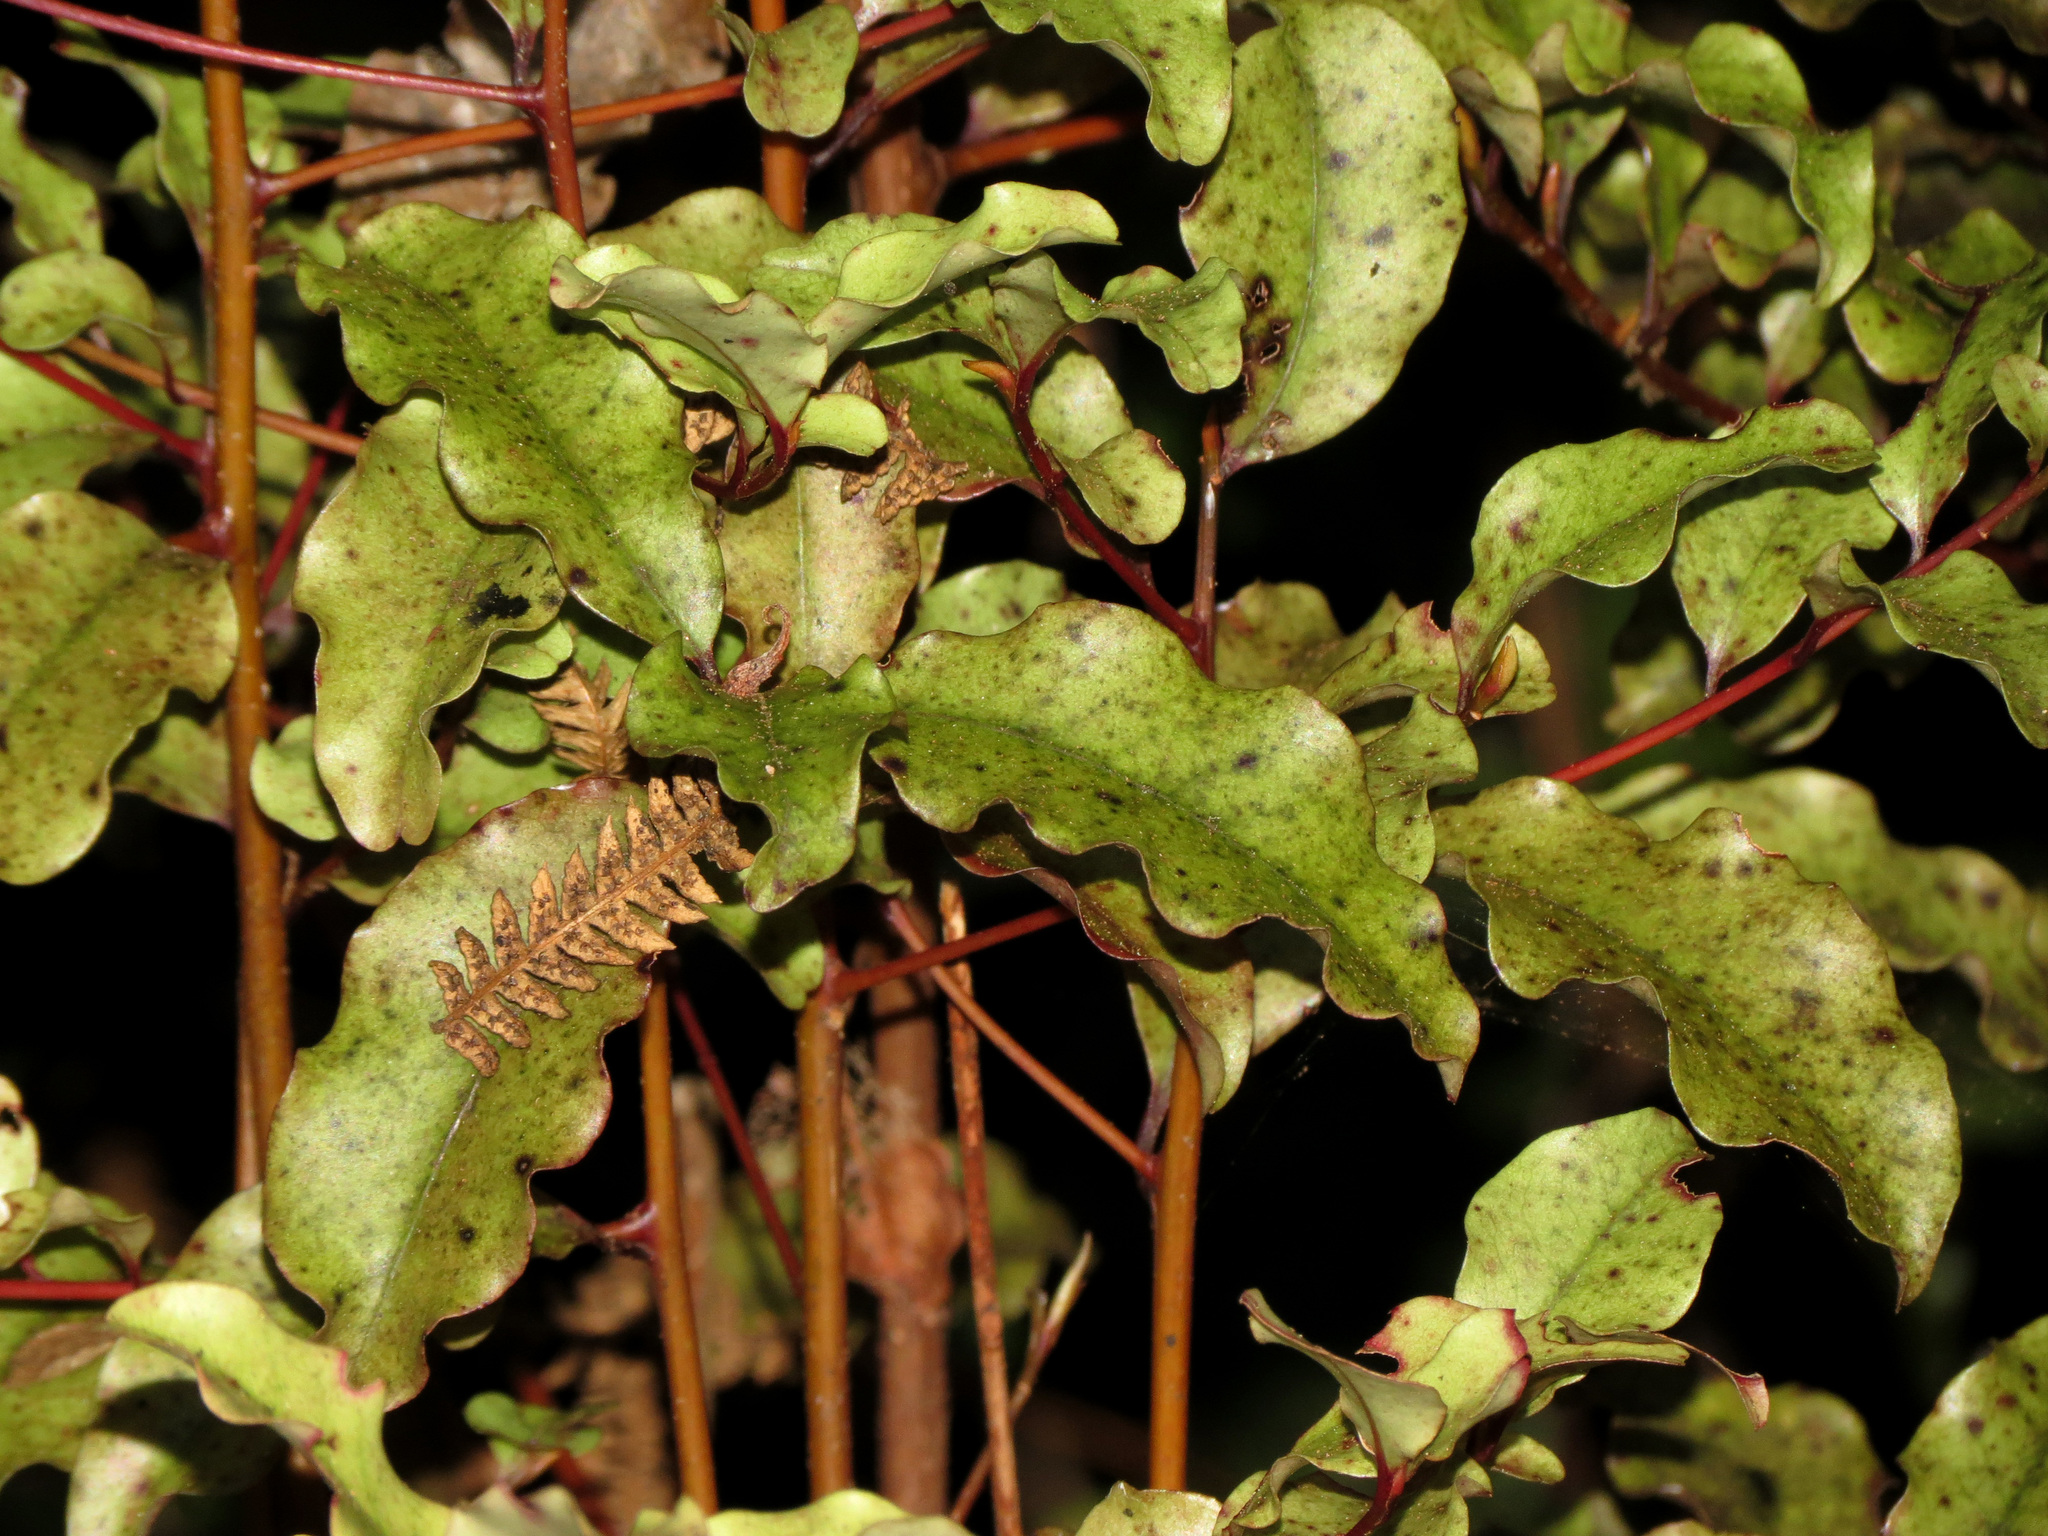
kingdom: Plantae
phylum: Tracheophyta
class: Magnoliopsida
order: Ericales
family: Primulaceae
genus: Myrsine
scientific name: Myrsine australis
